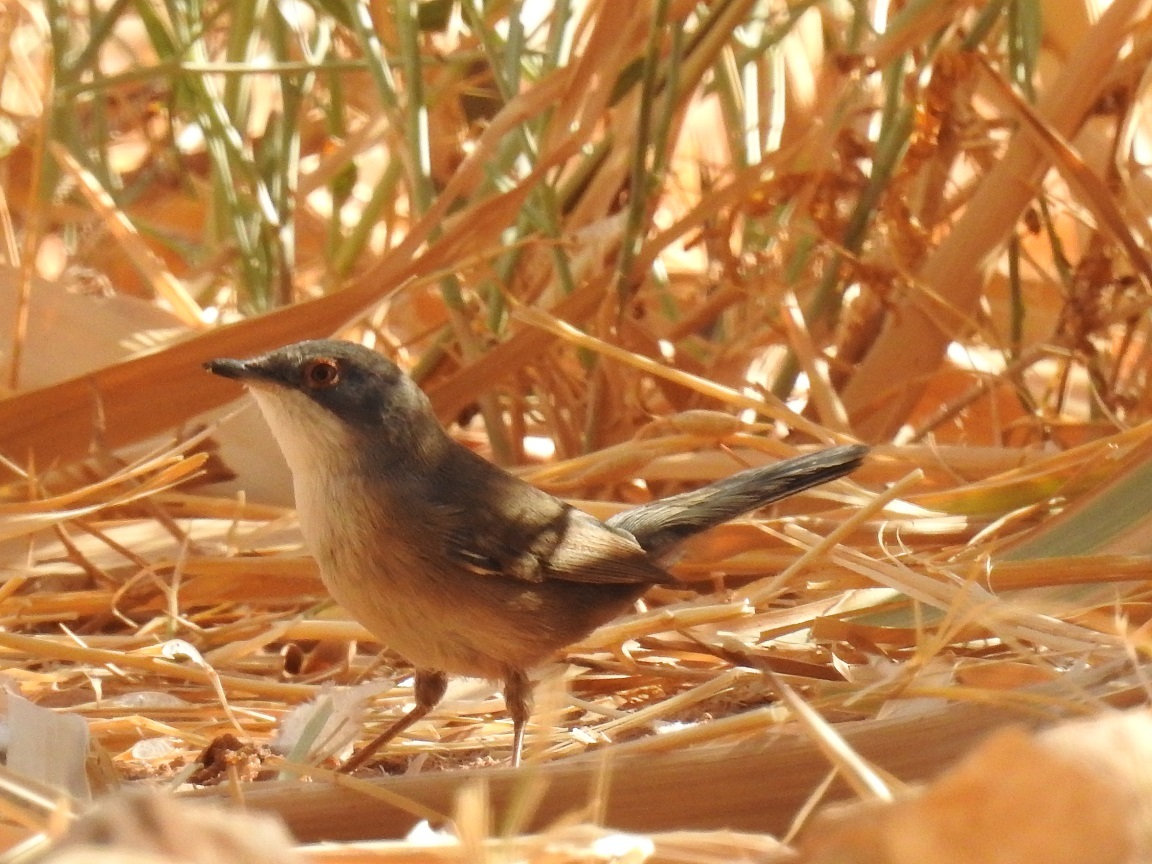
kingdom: Animalia
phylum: Chordata
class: Aves
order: Passeriformes
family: Sylviidae
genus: Curruca
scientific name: Curruca melanocephala
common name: Sardinian warbler
